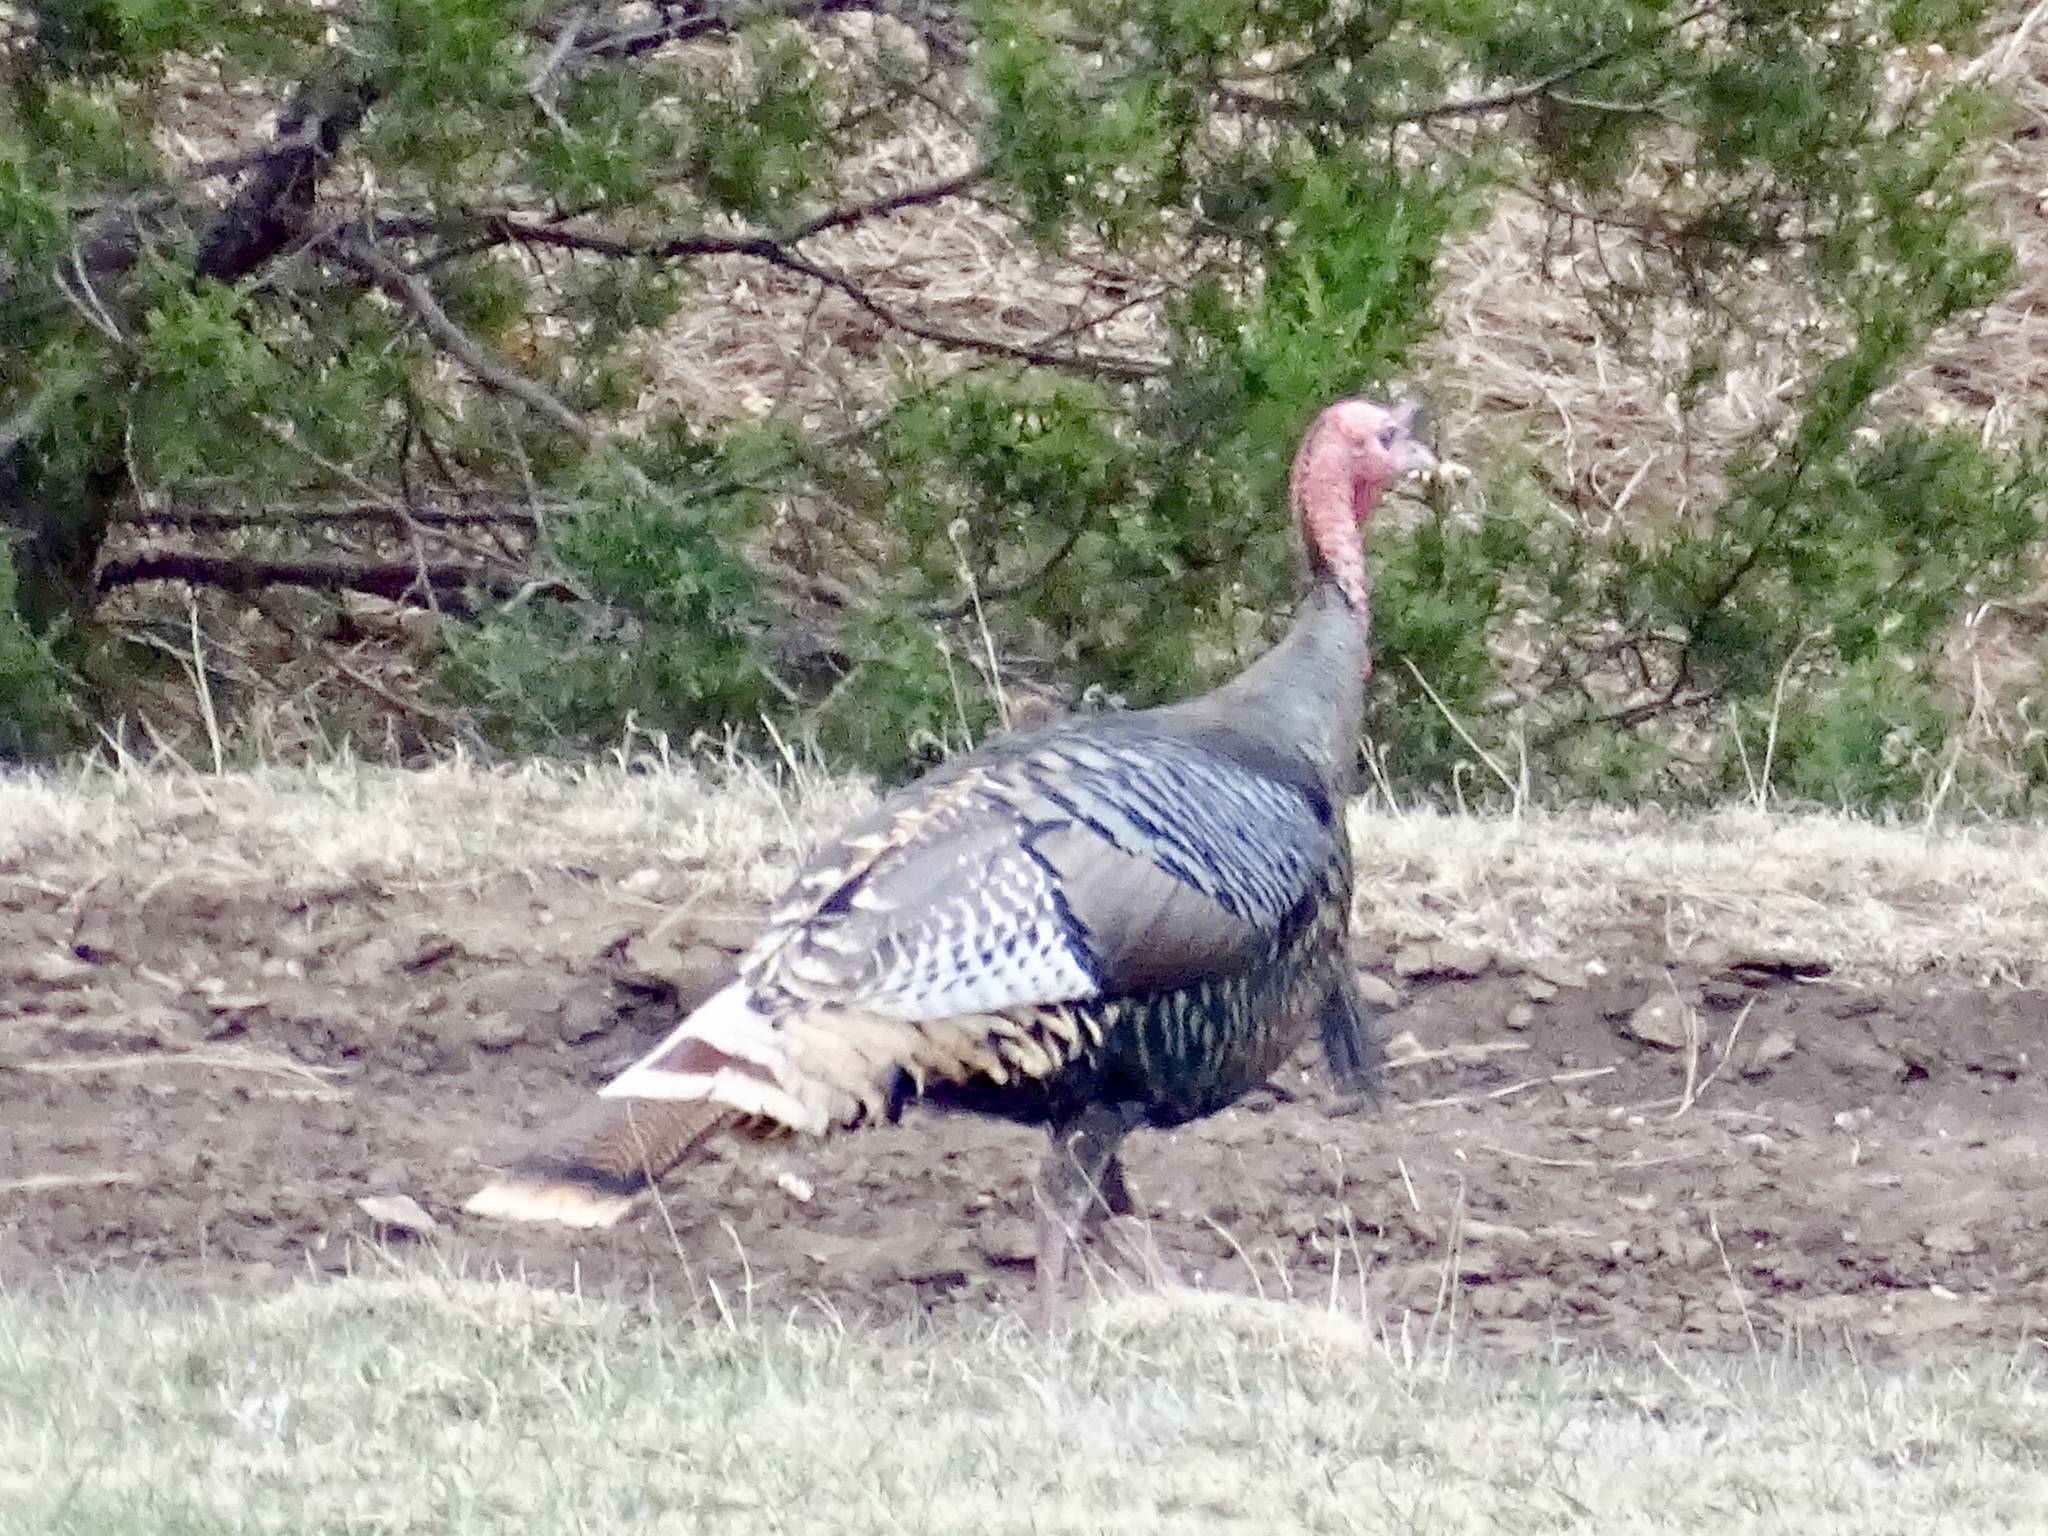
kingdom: Animalia
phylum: Chordata
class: Aves
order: Galliformes
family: Phasianidae
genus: Meleagris
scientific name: Meleagris gallopavo
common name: Wild turkey
